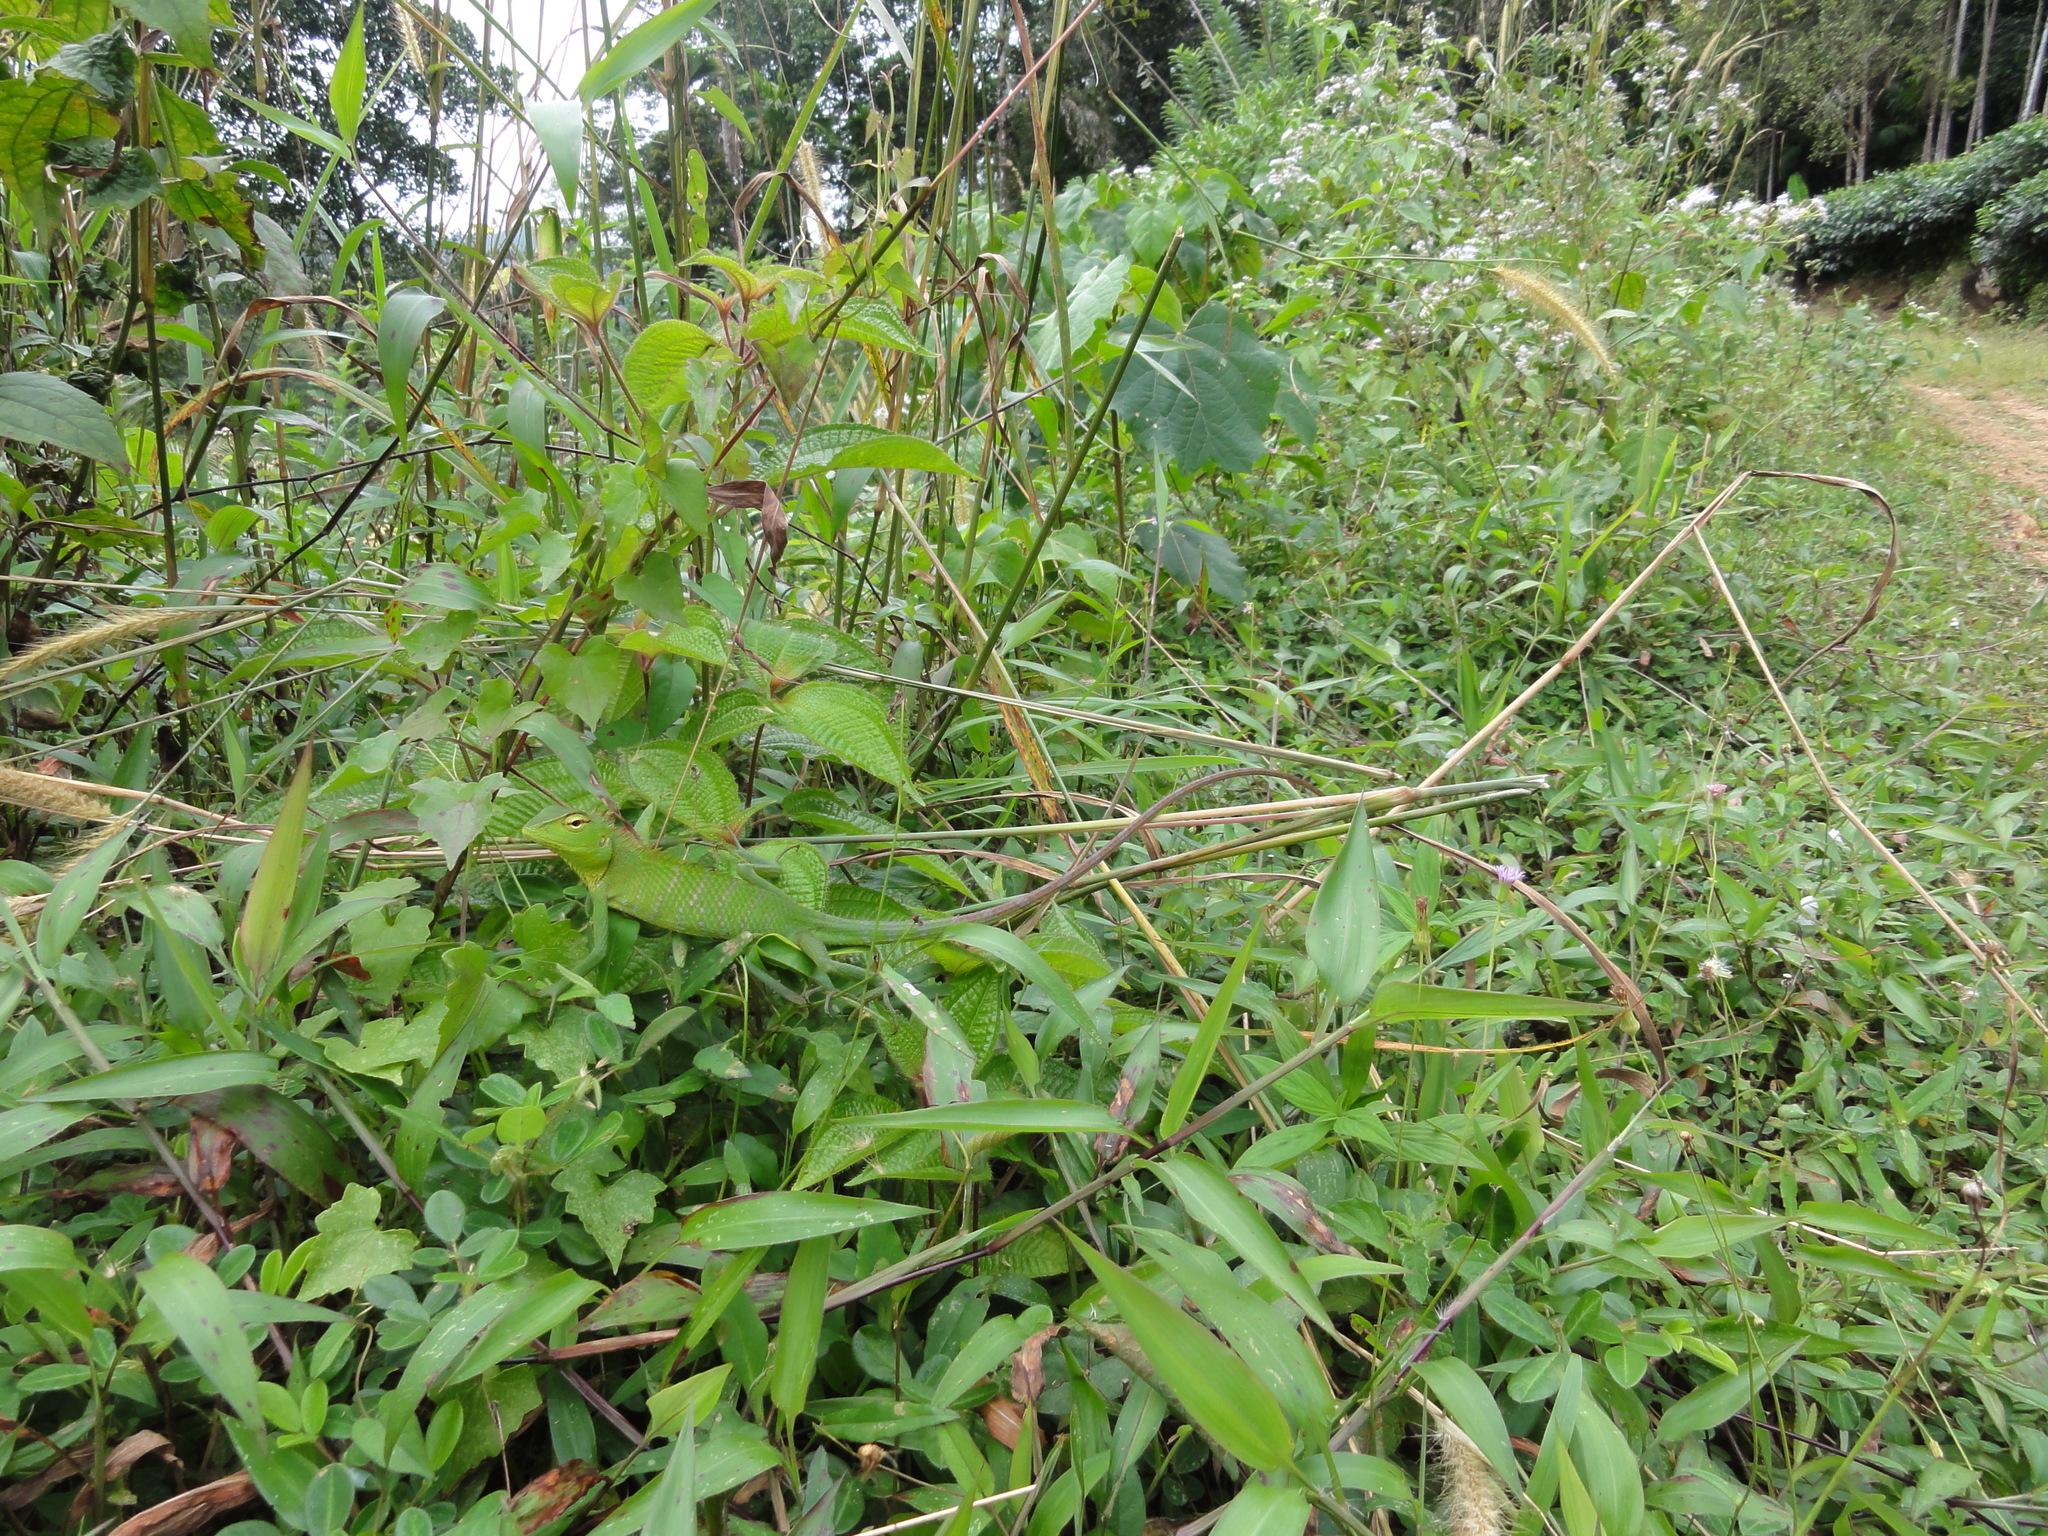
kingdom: Animalia
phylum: Chordata
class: Squamata
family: Agamidae
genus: Calotes
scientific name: Calotes calotes
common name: Common green forest lizard
